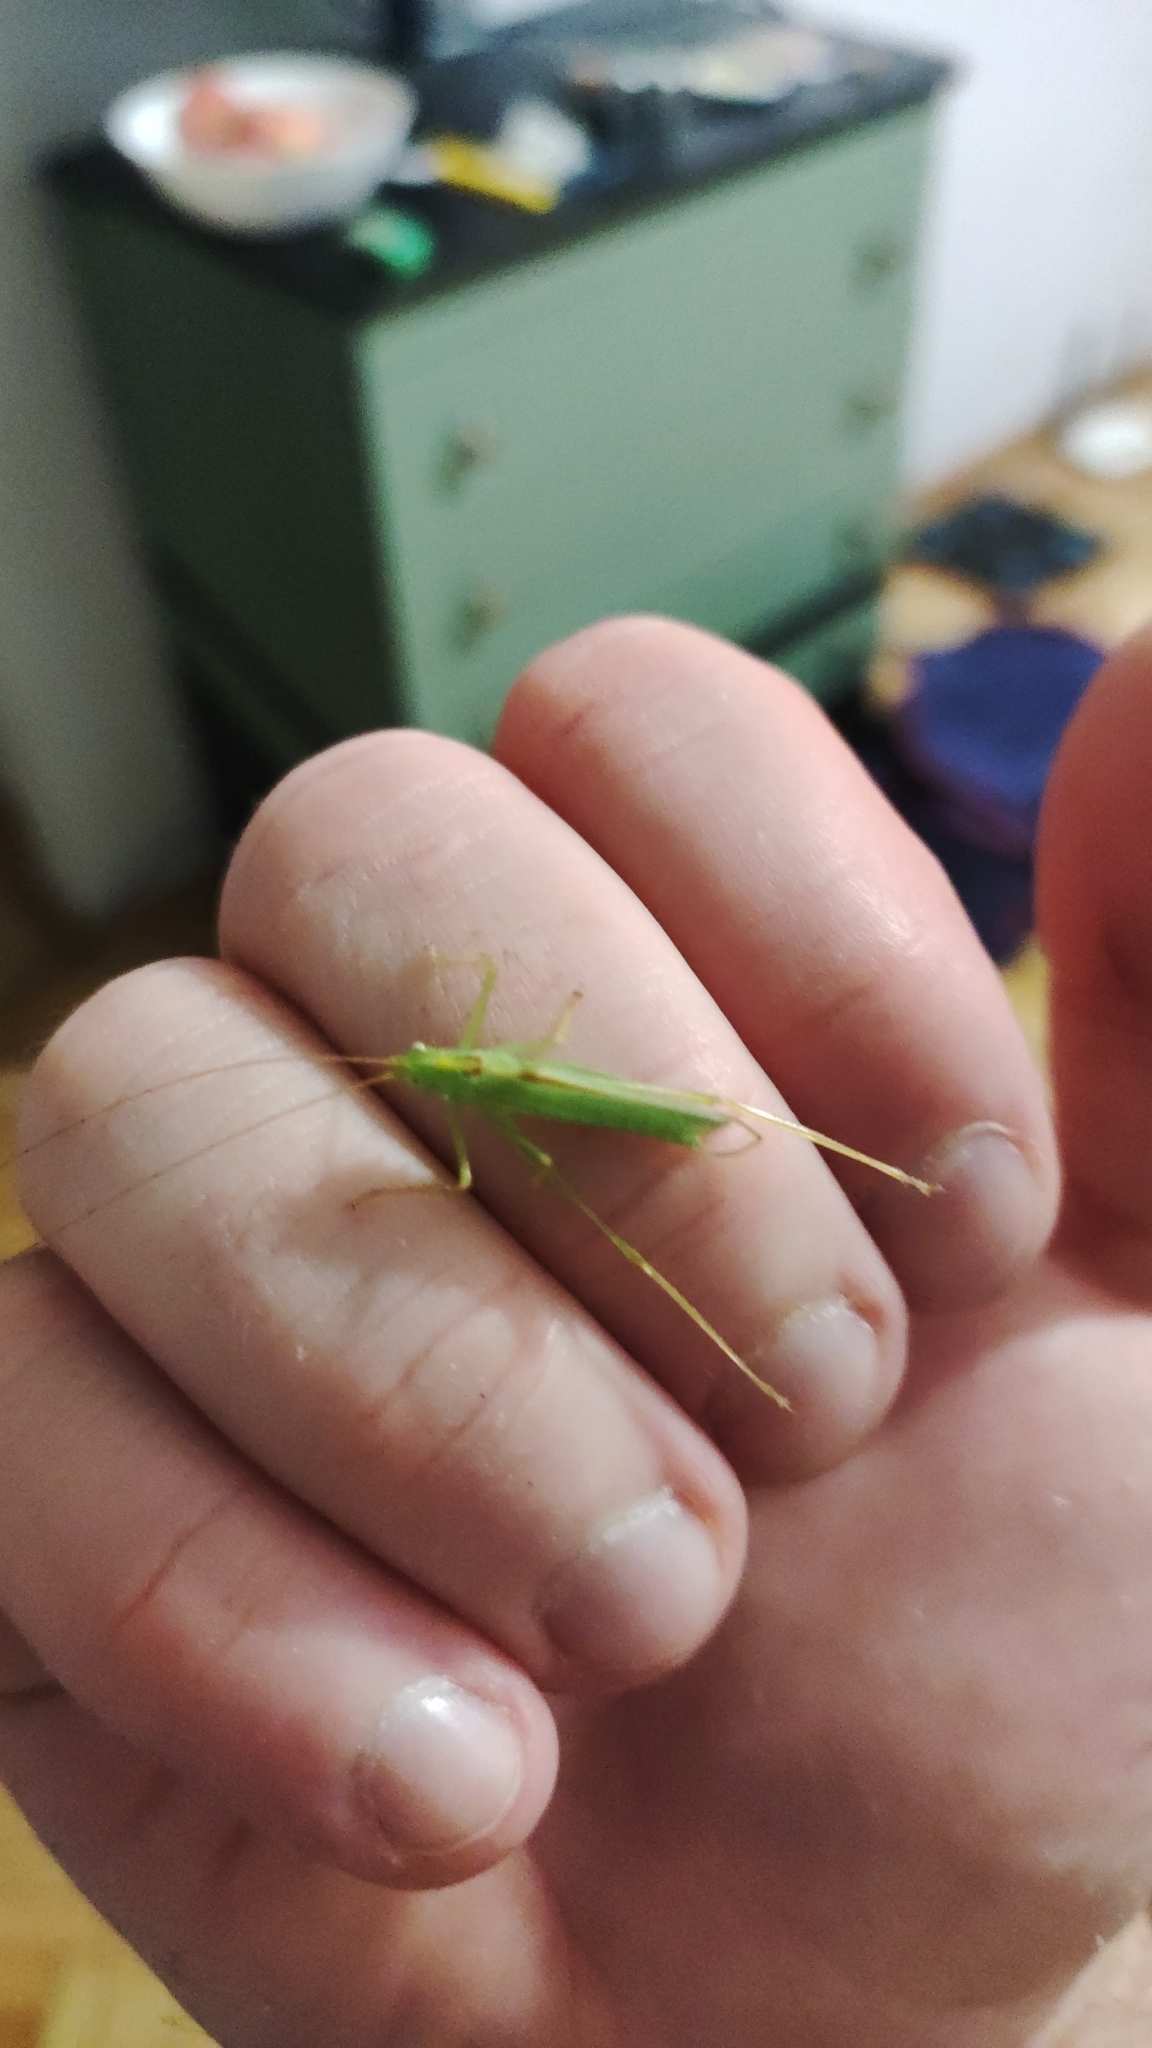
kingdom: Animalia
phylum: Arthropoda
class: Insecta
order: Orthoptera
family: Tettigoniidae
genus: Meconema
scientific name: Meconema thalassinum
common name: Oak bush-cricket
